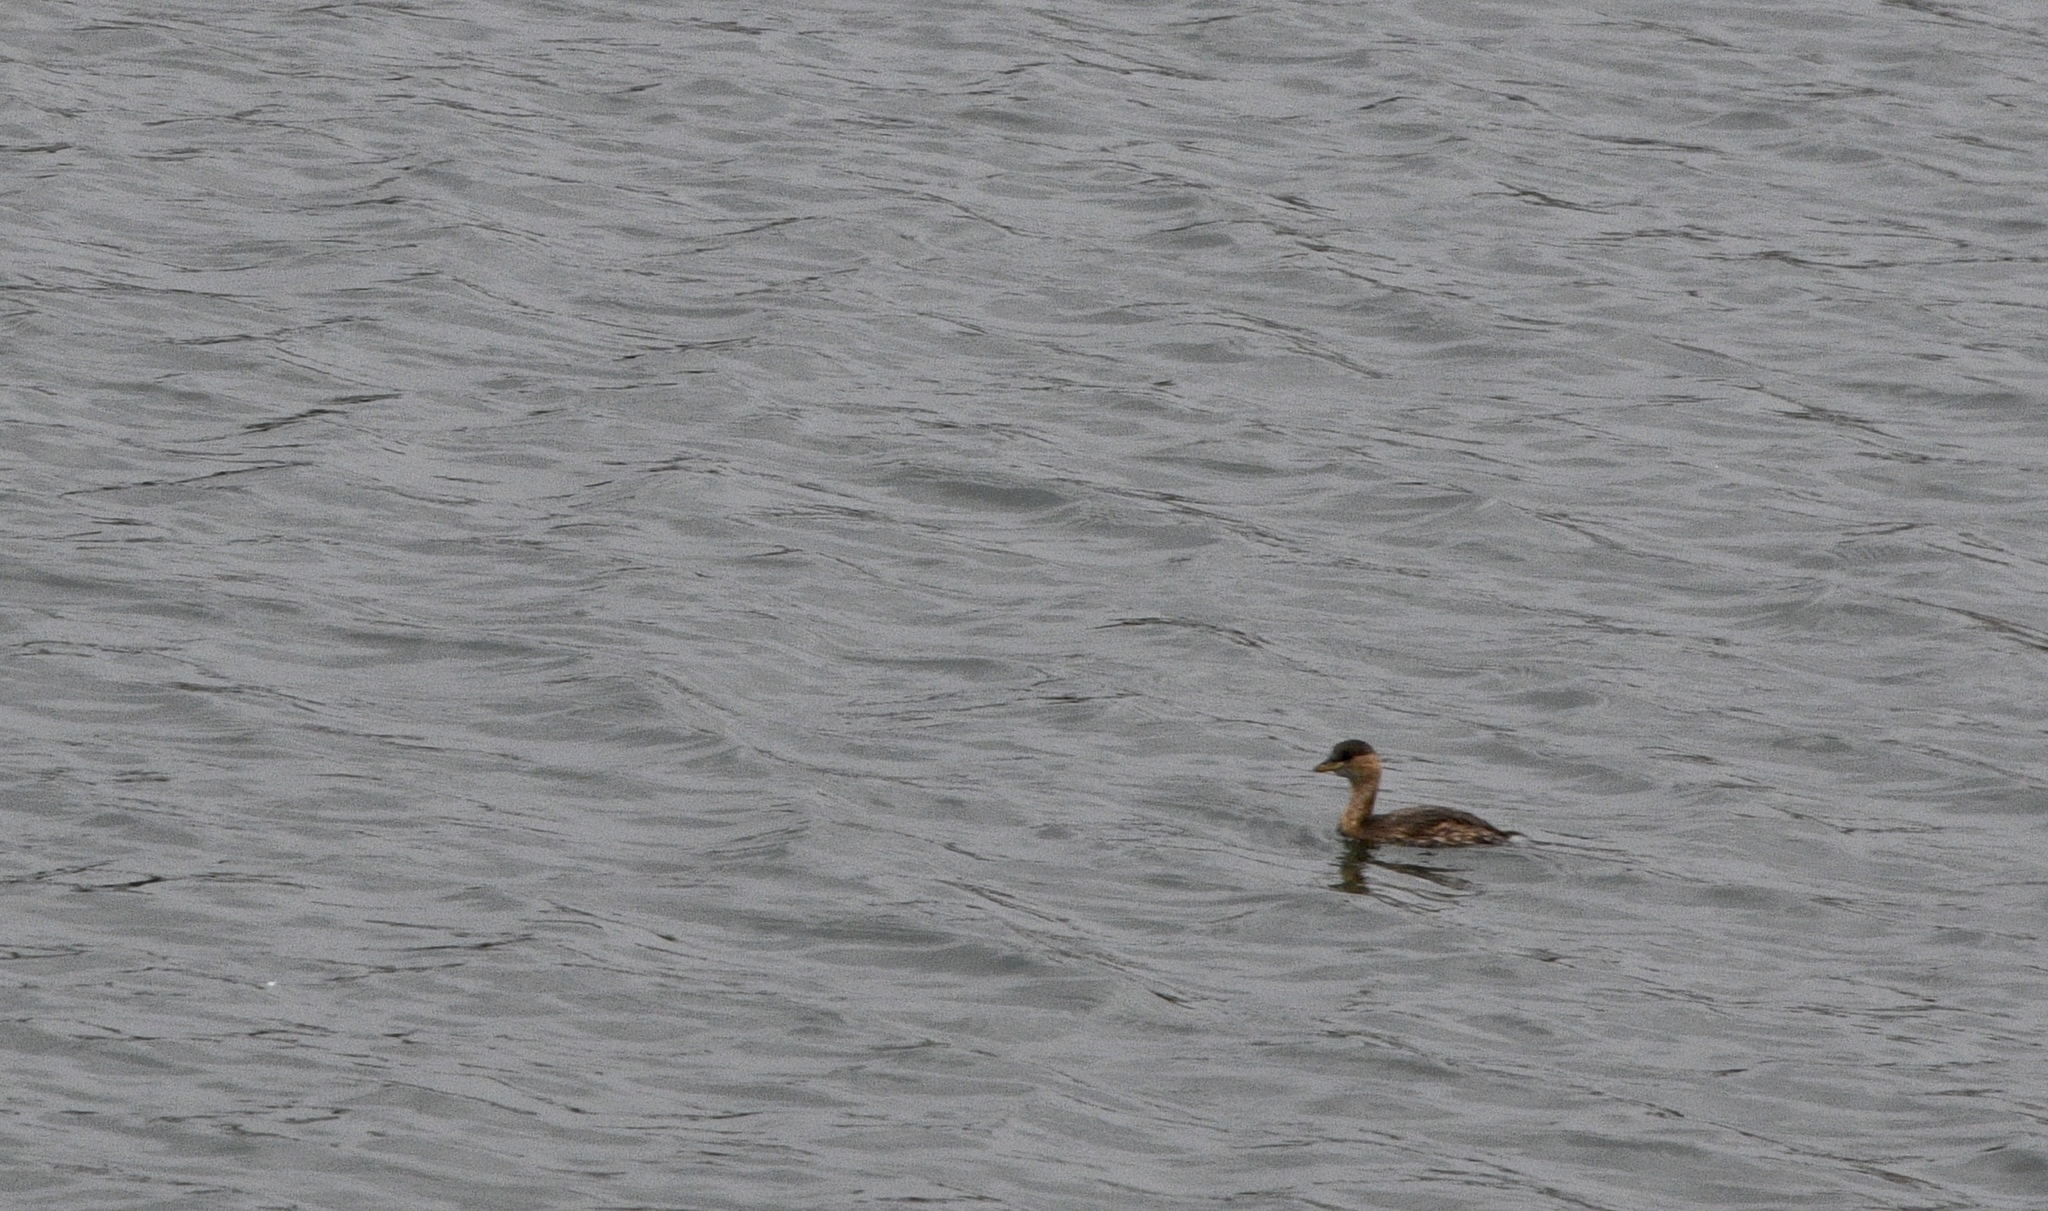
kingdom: Animalia
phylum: Chordata
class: Aves
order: Podicipediformes
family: Podicipedidae
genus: Tachybaptus
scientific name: Tachybaptus ruficollis
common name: Little grebe
